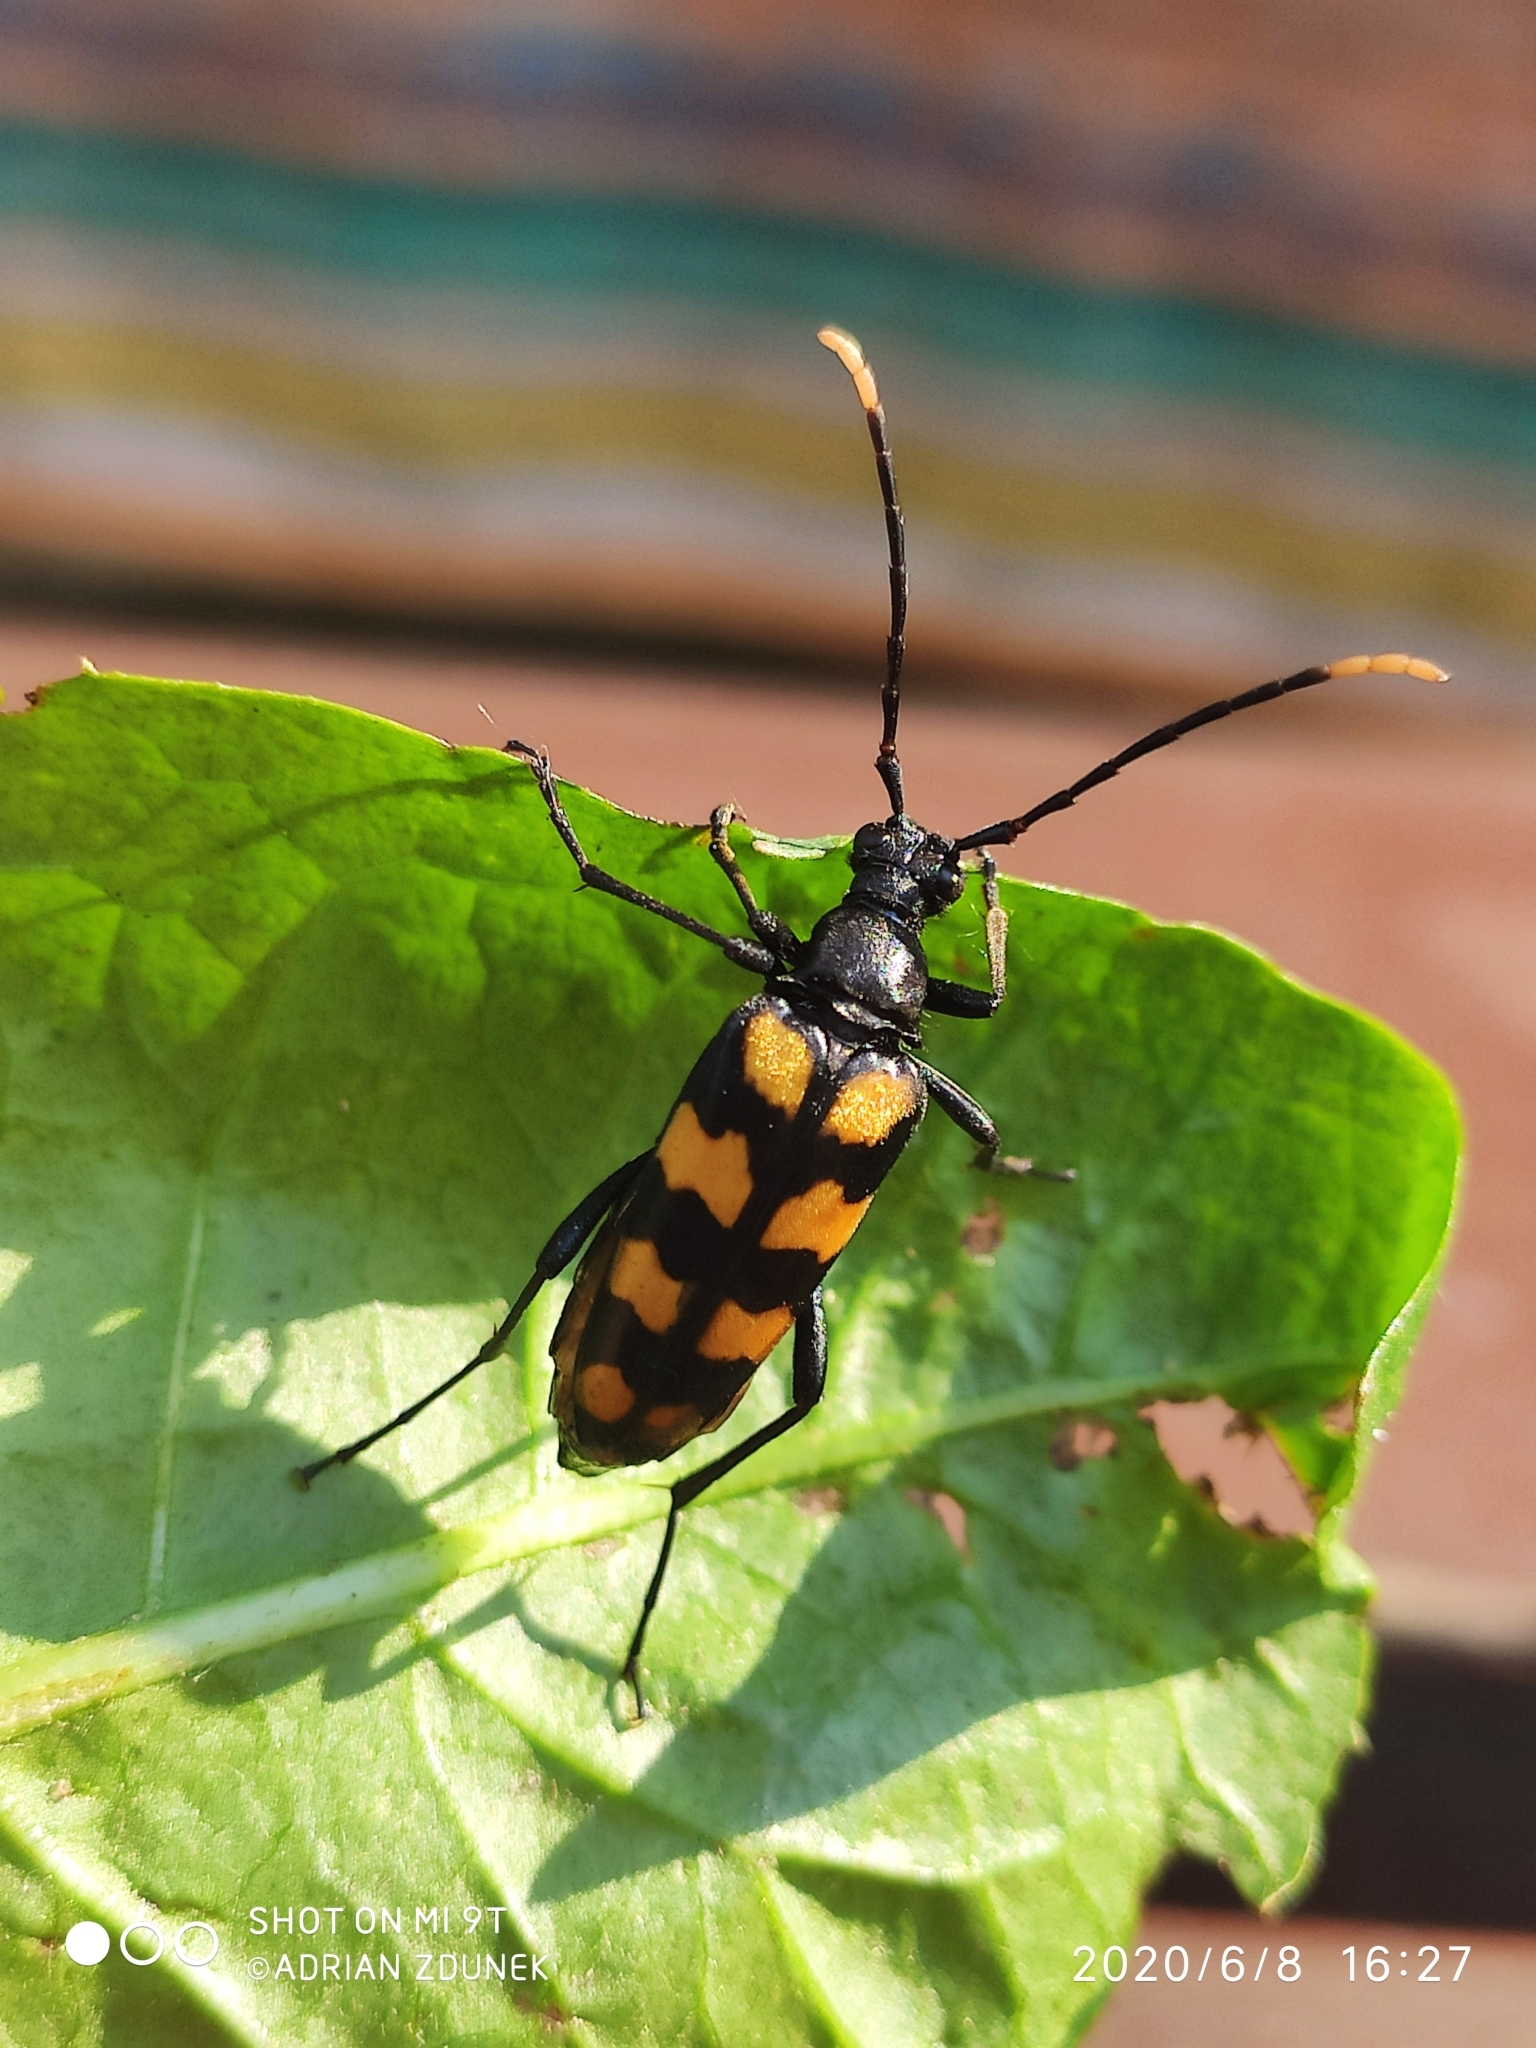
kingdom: Animalia
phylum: Arthropoda
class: Insecta
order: Coleoptera
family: Cerambycidae
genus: Leptura
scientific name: Leptura quadrifasciata
